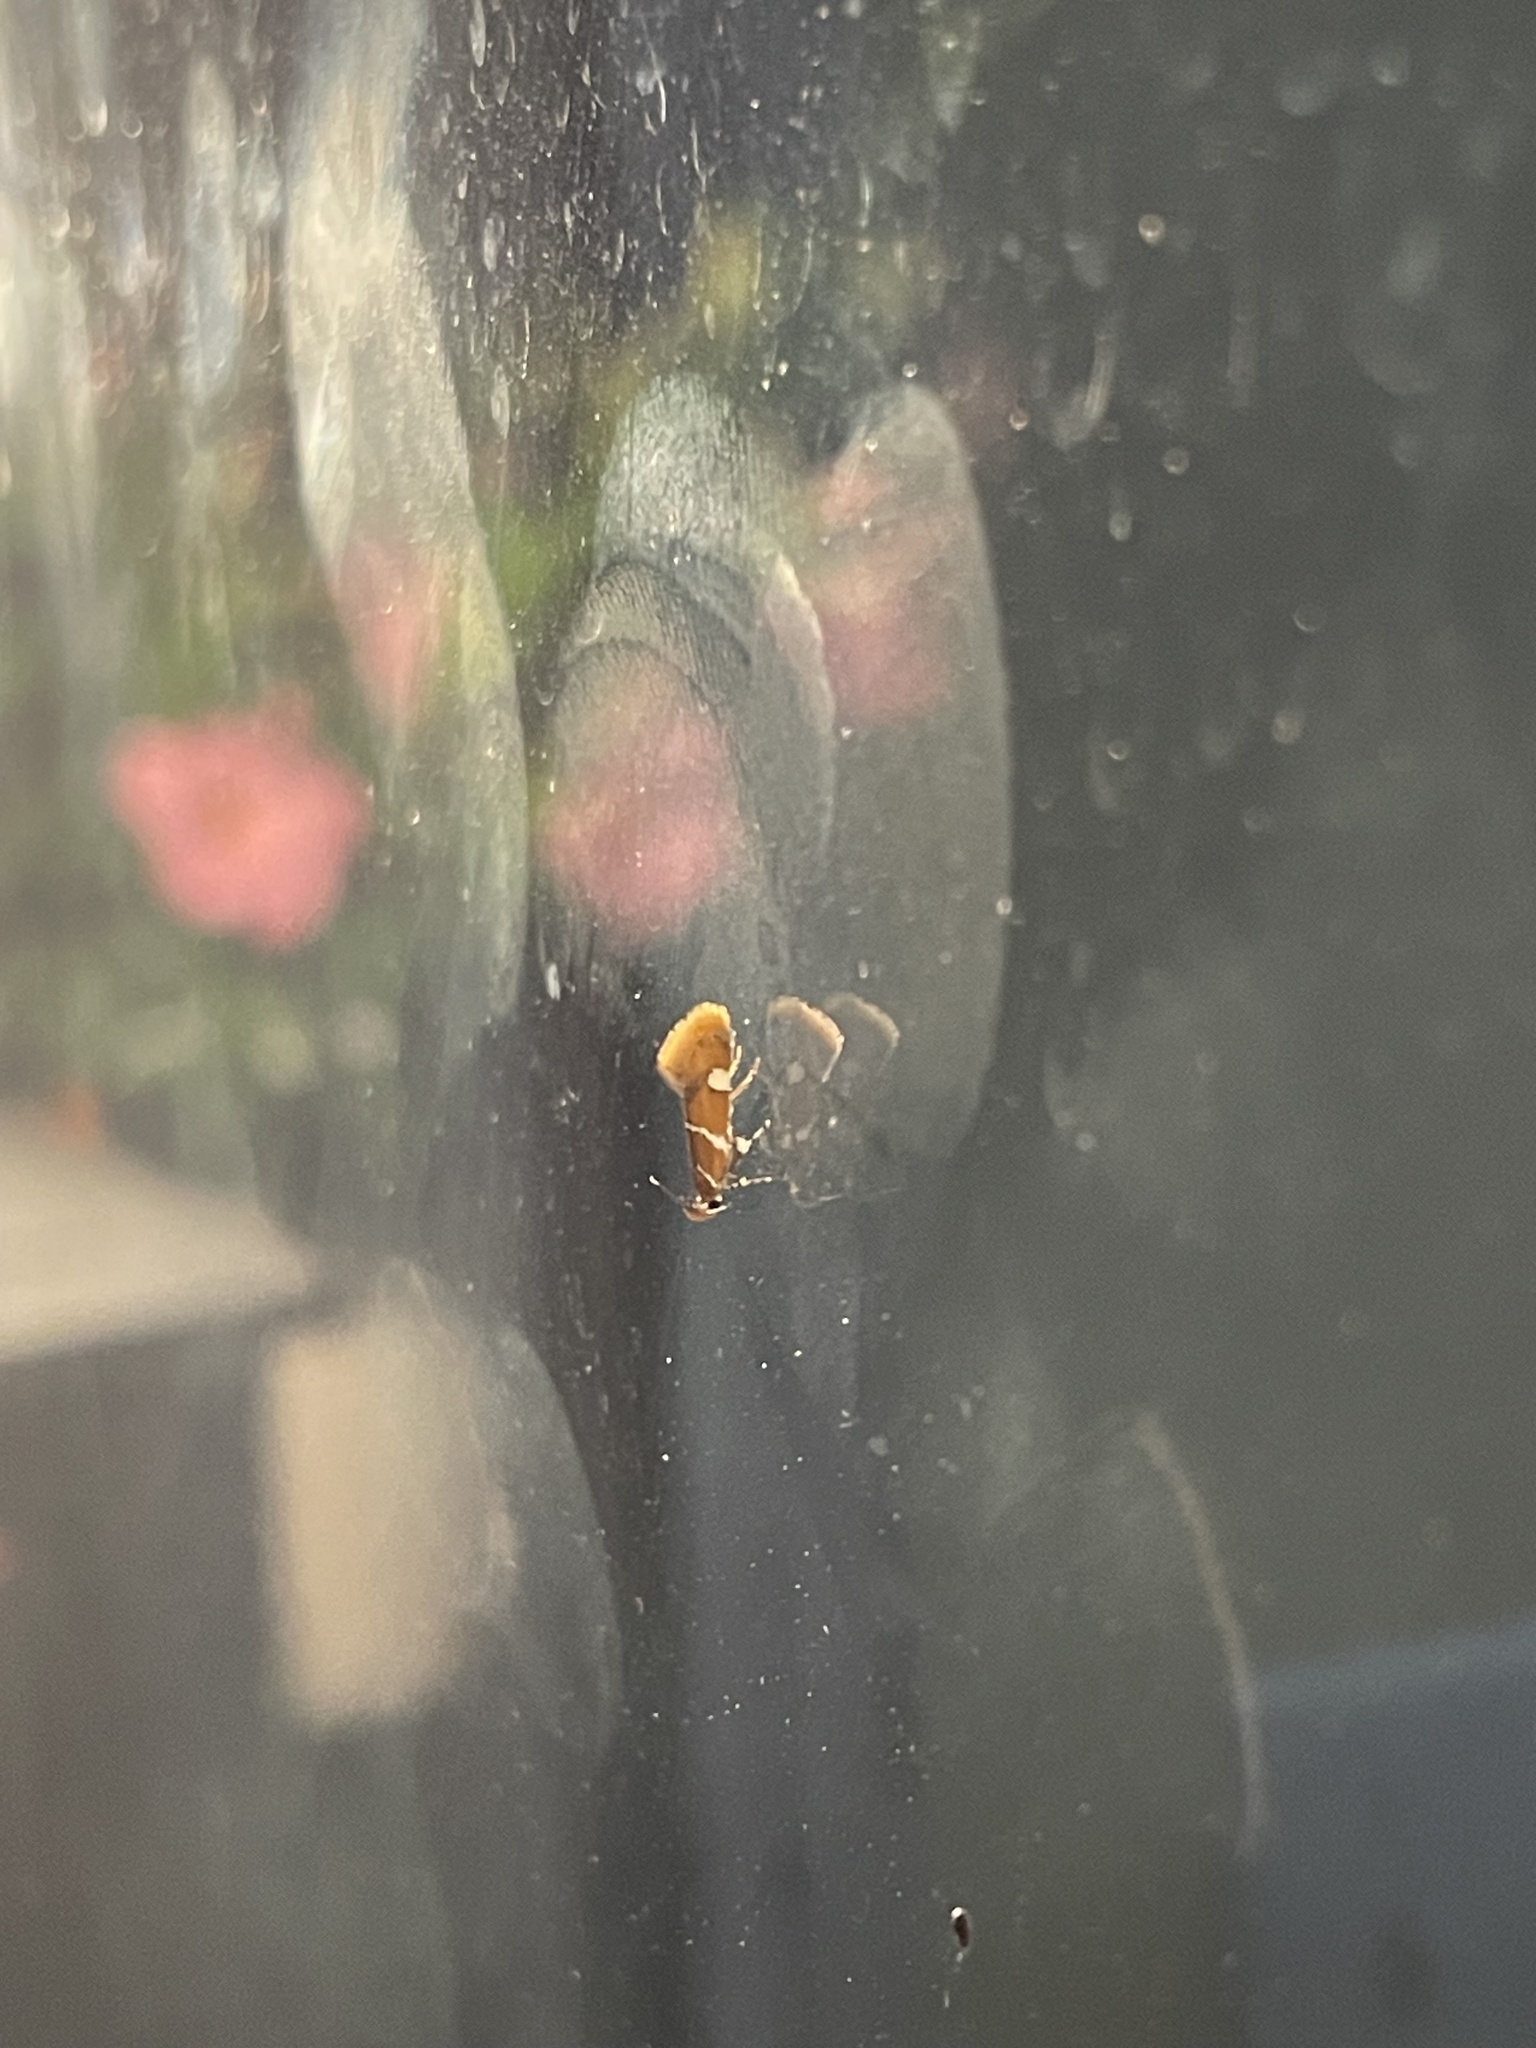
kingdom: Animalia
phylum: Arthropoda
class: Insecta
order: Lepidoptera
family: Oecophoridae
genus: Promalactis
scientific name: Promalactis suzukiella
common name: Moth
